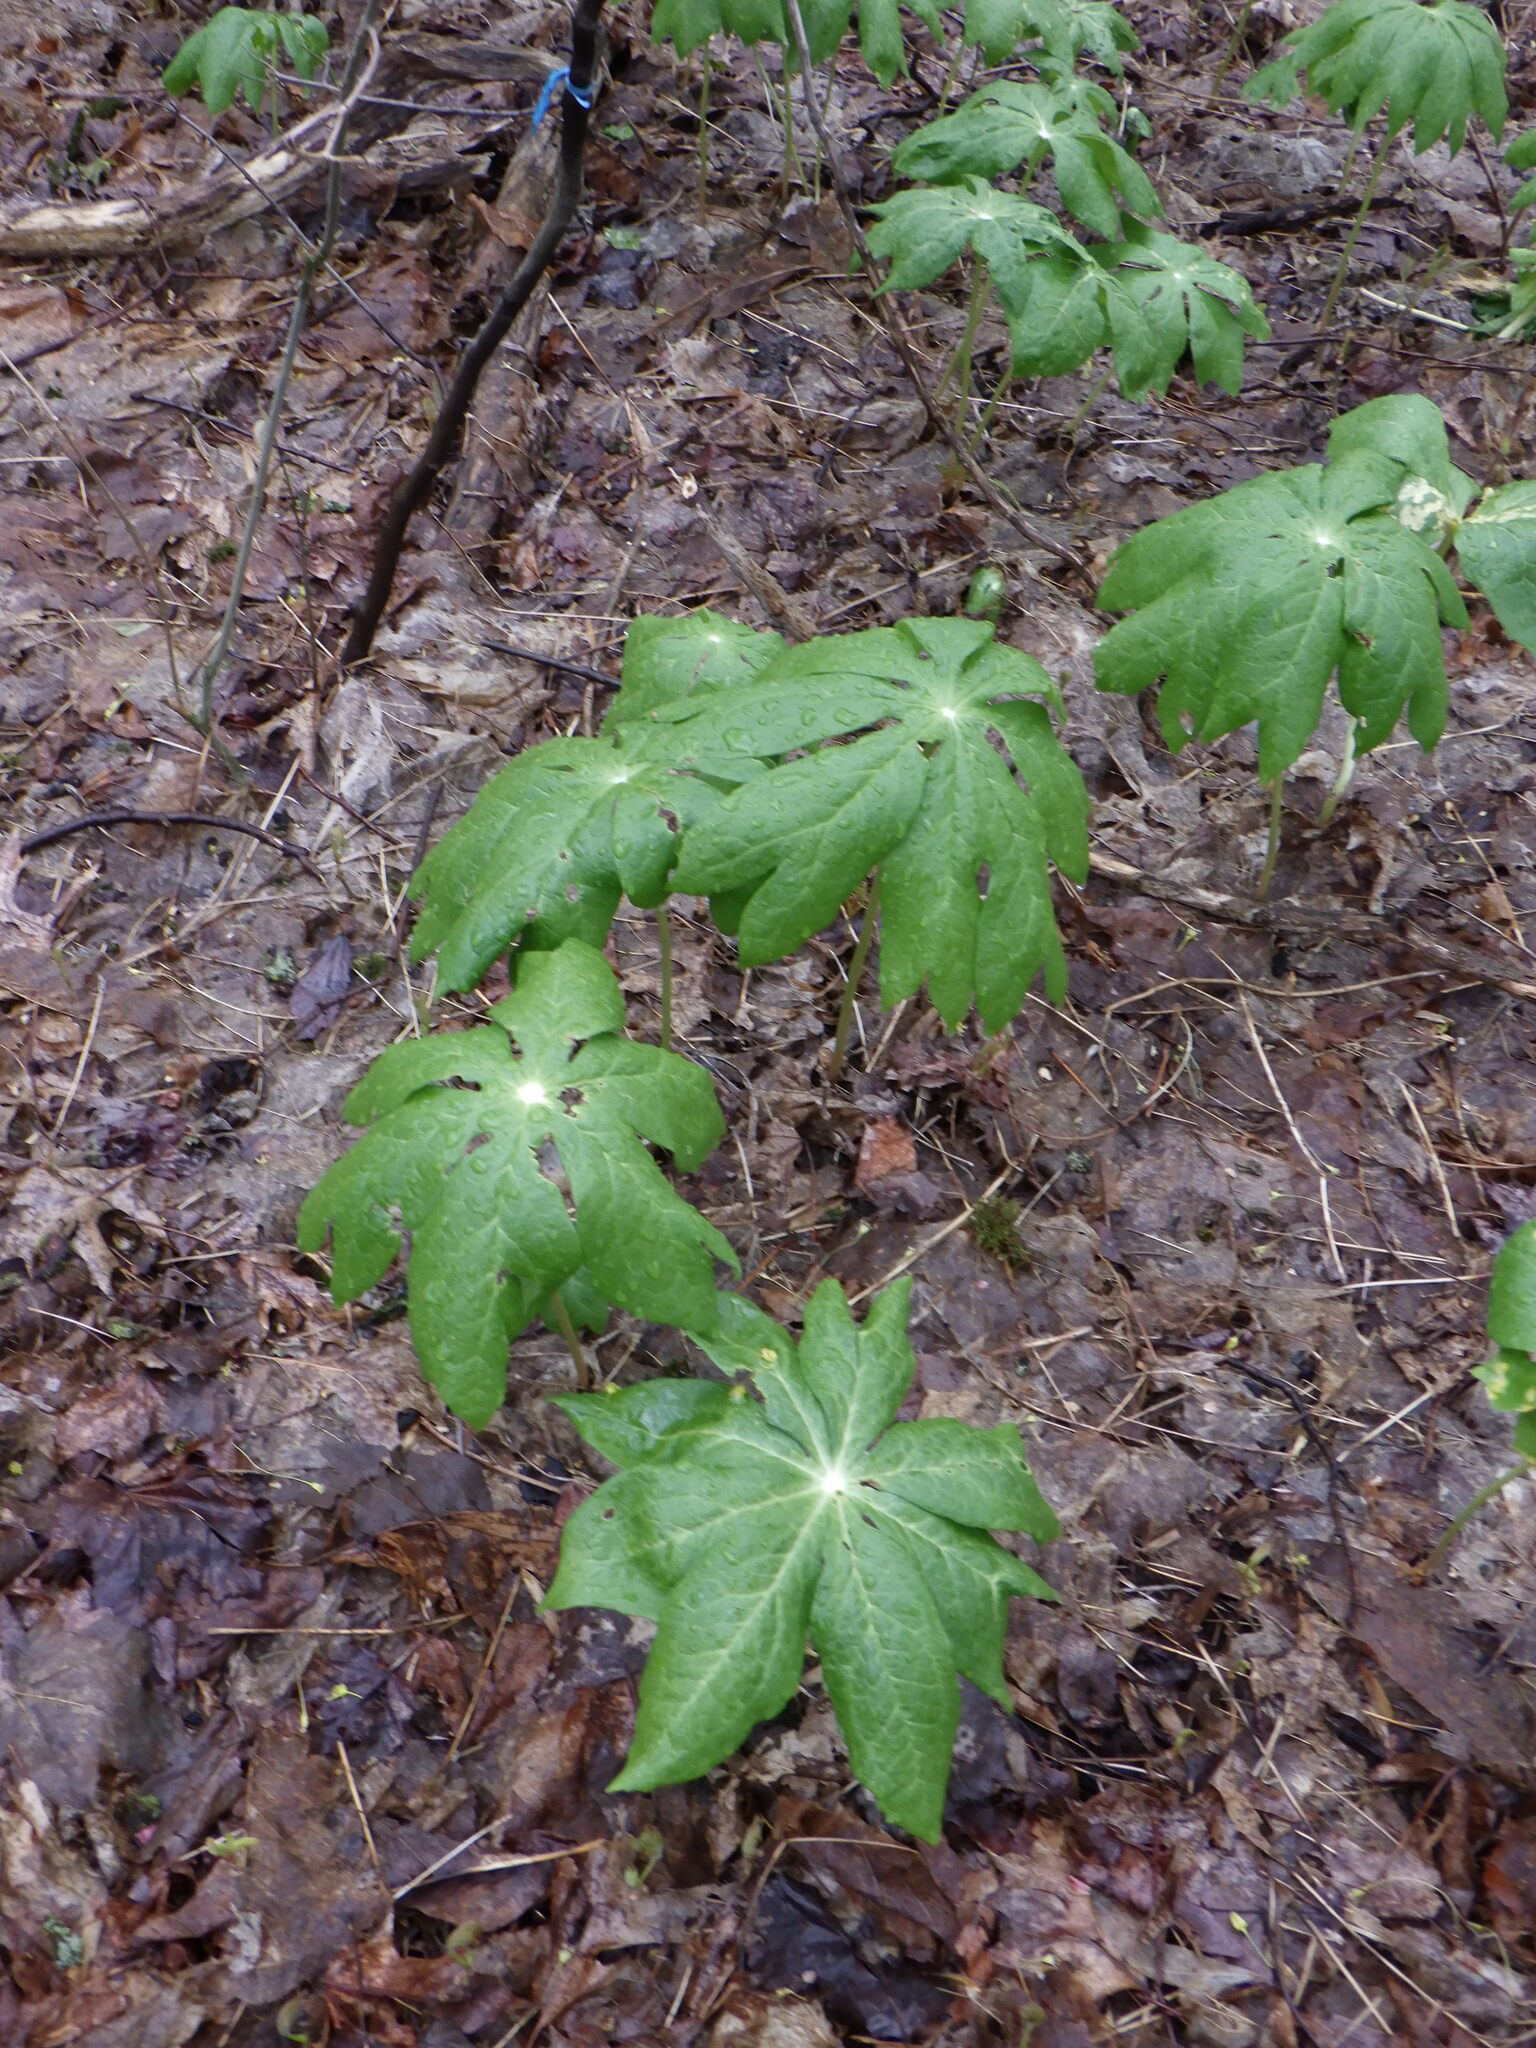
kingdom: Plantae
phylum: Tracheophyta
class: Magnoliopsida
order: Ranunculales
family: Berberidaceae
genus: Podophyllum
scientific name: Podophyllum peltatum
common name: Wild mandrake
